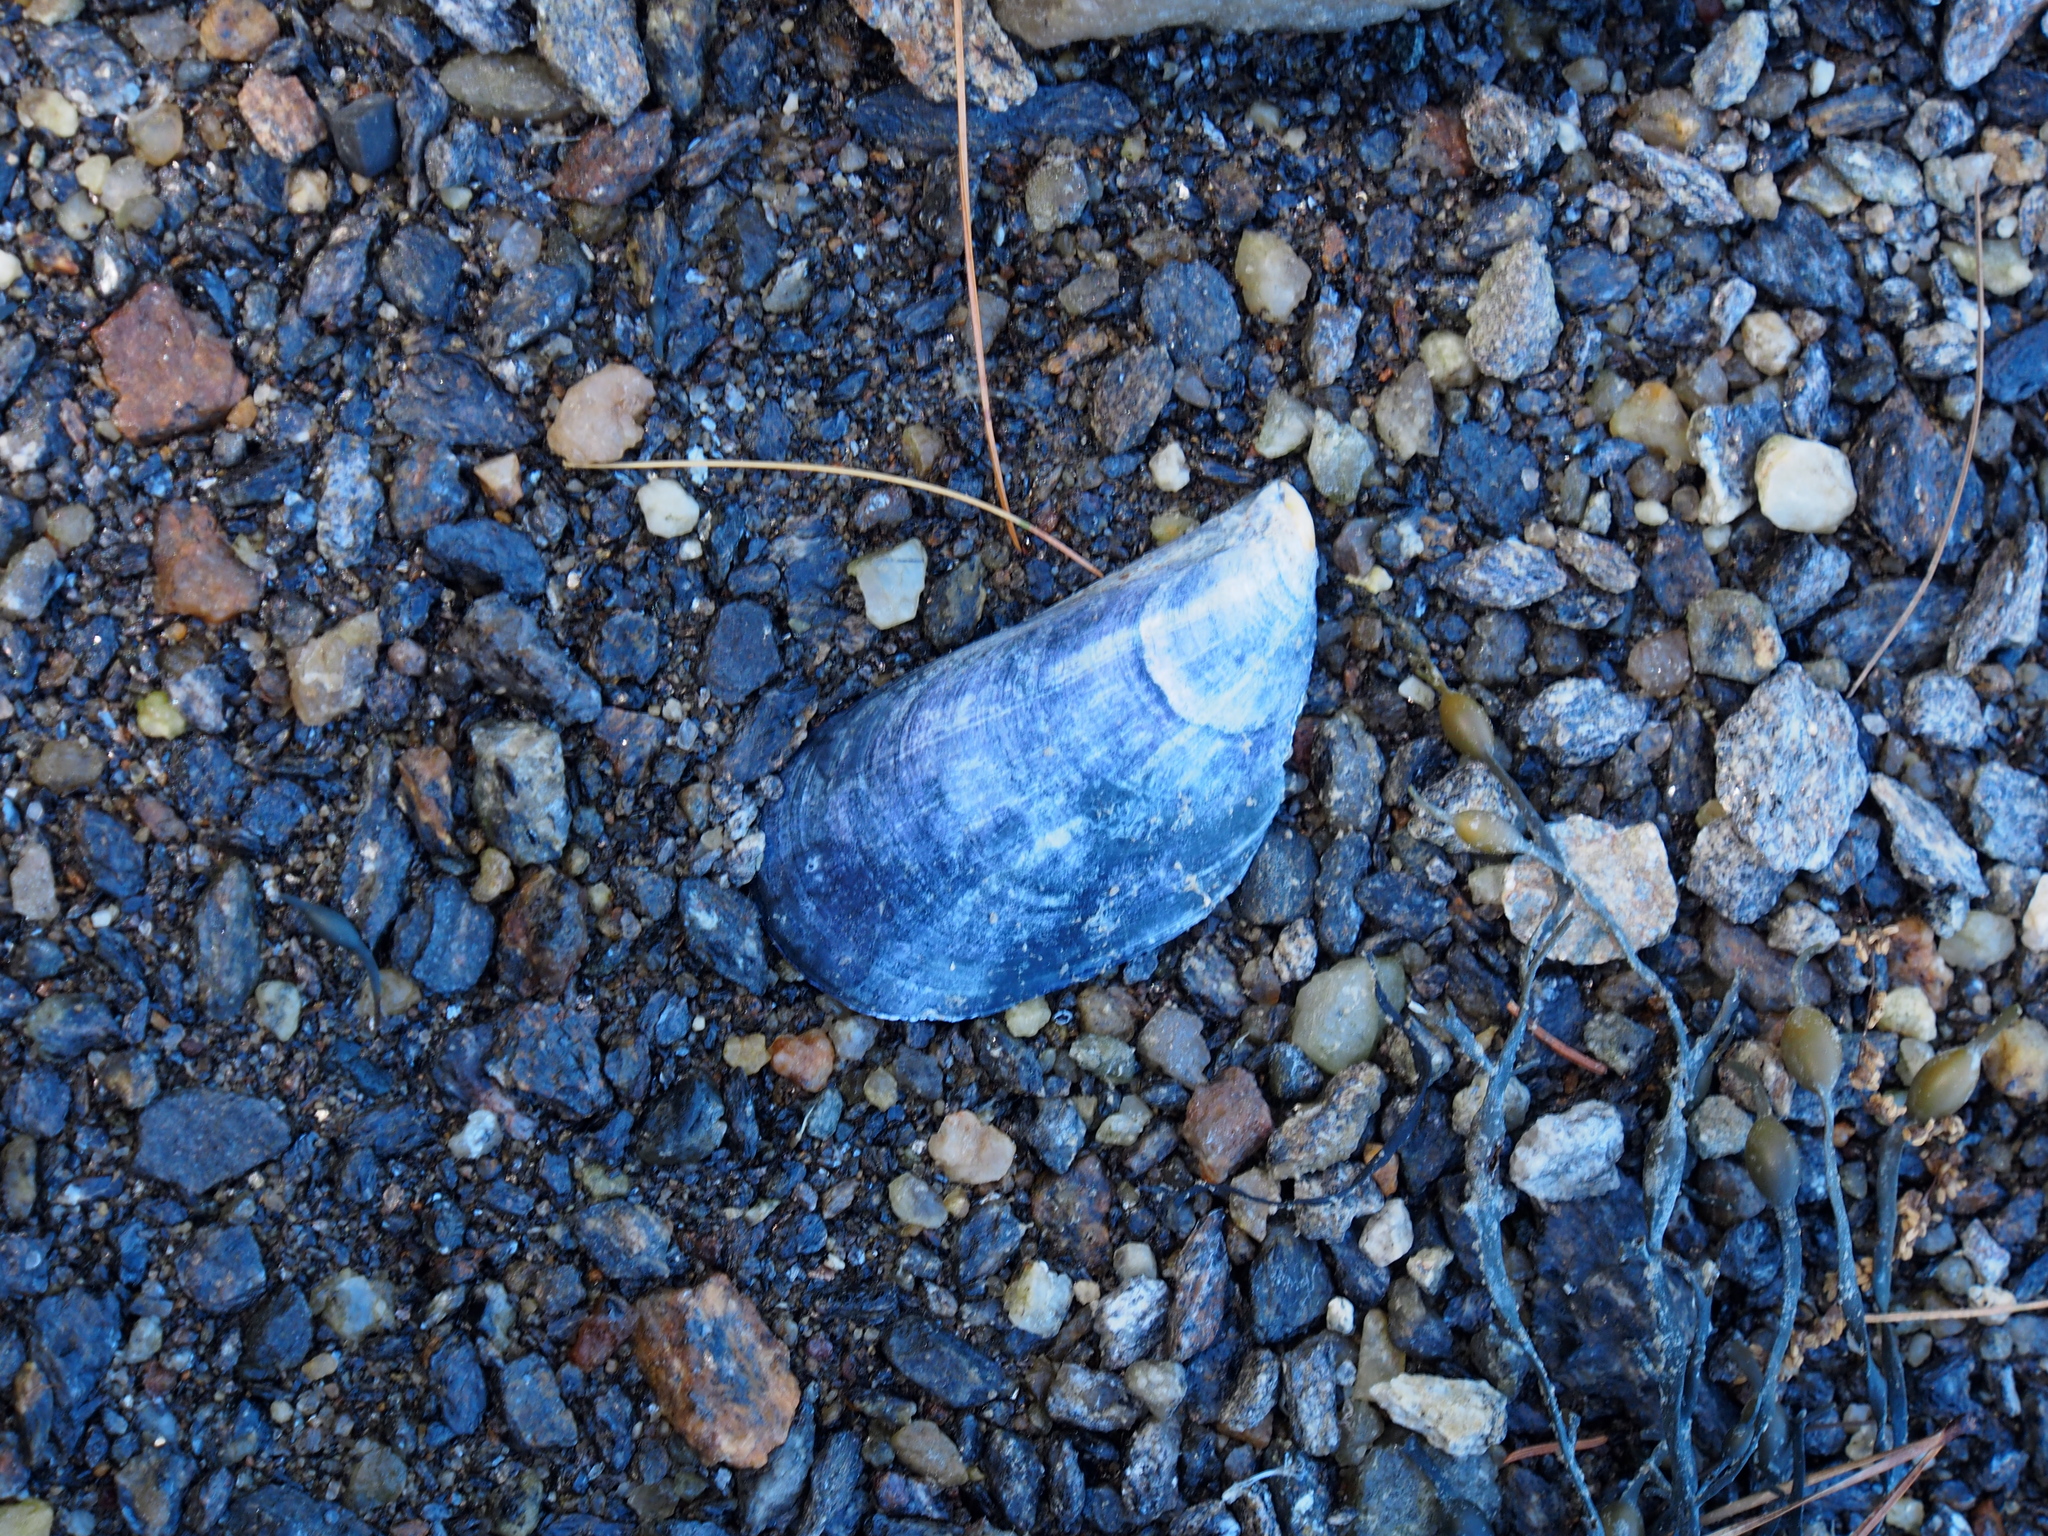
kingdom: Animalia
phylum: Mollusca
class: Bivalvia
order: Mytilida
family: Mytilidae
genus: Mytilus
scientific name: Mytilus edulis
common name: Blue mussel
